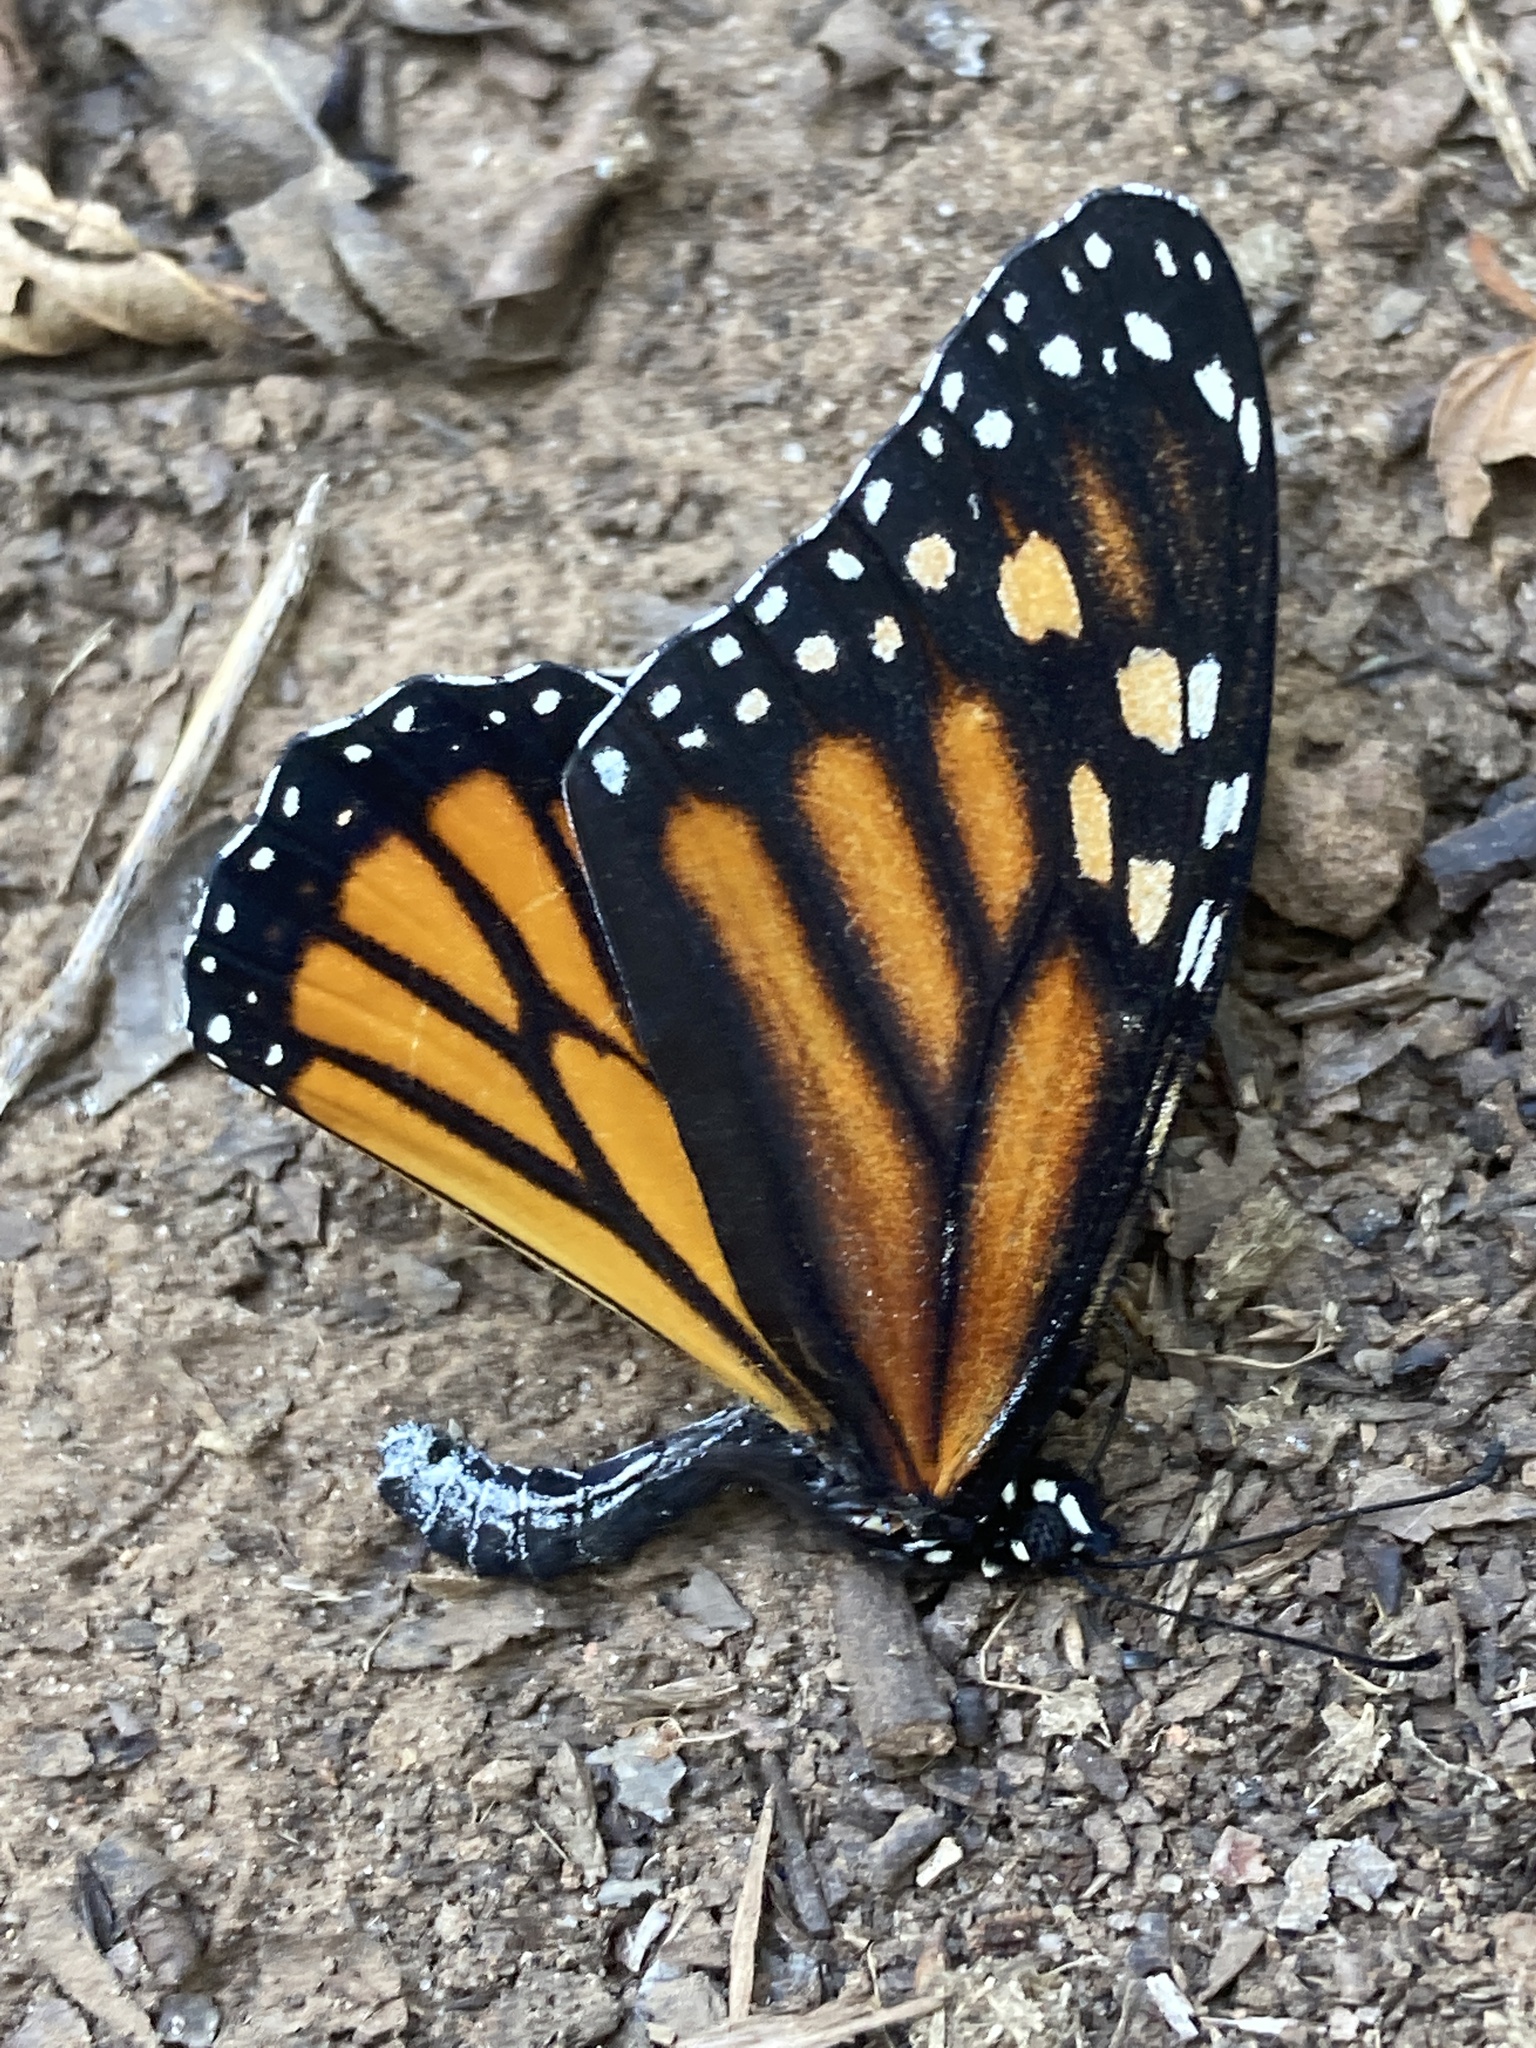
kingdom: Animalia
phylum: Arthropoda
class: Insecta
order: Lepidoptera
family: Nymphalidae
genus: Danaus
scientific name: Danaus plexippus
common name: Monarch
